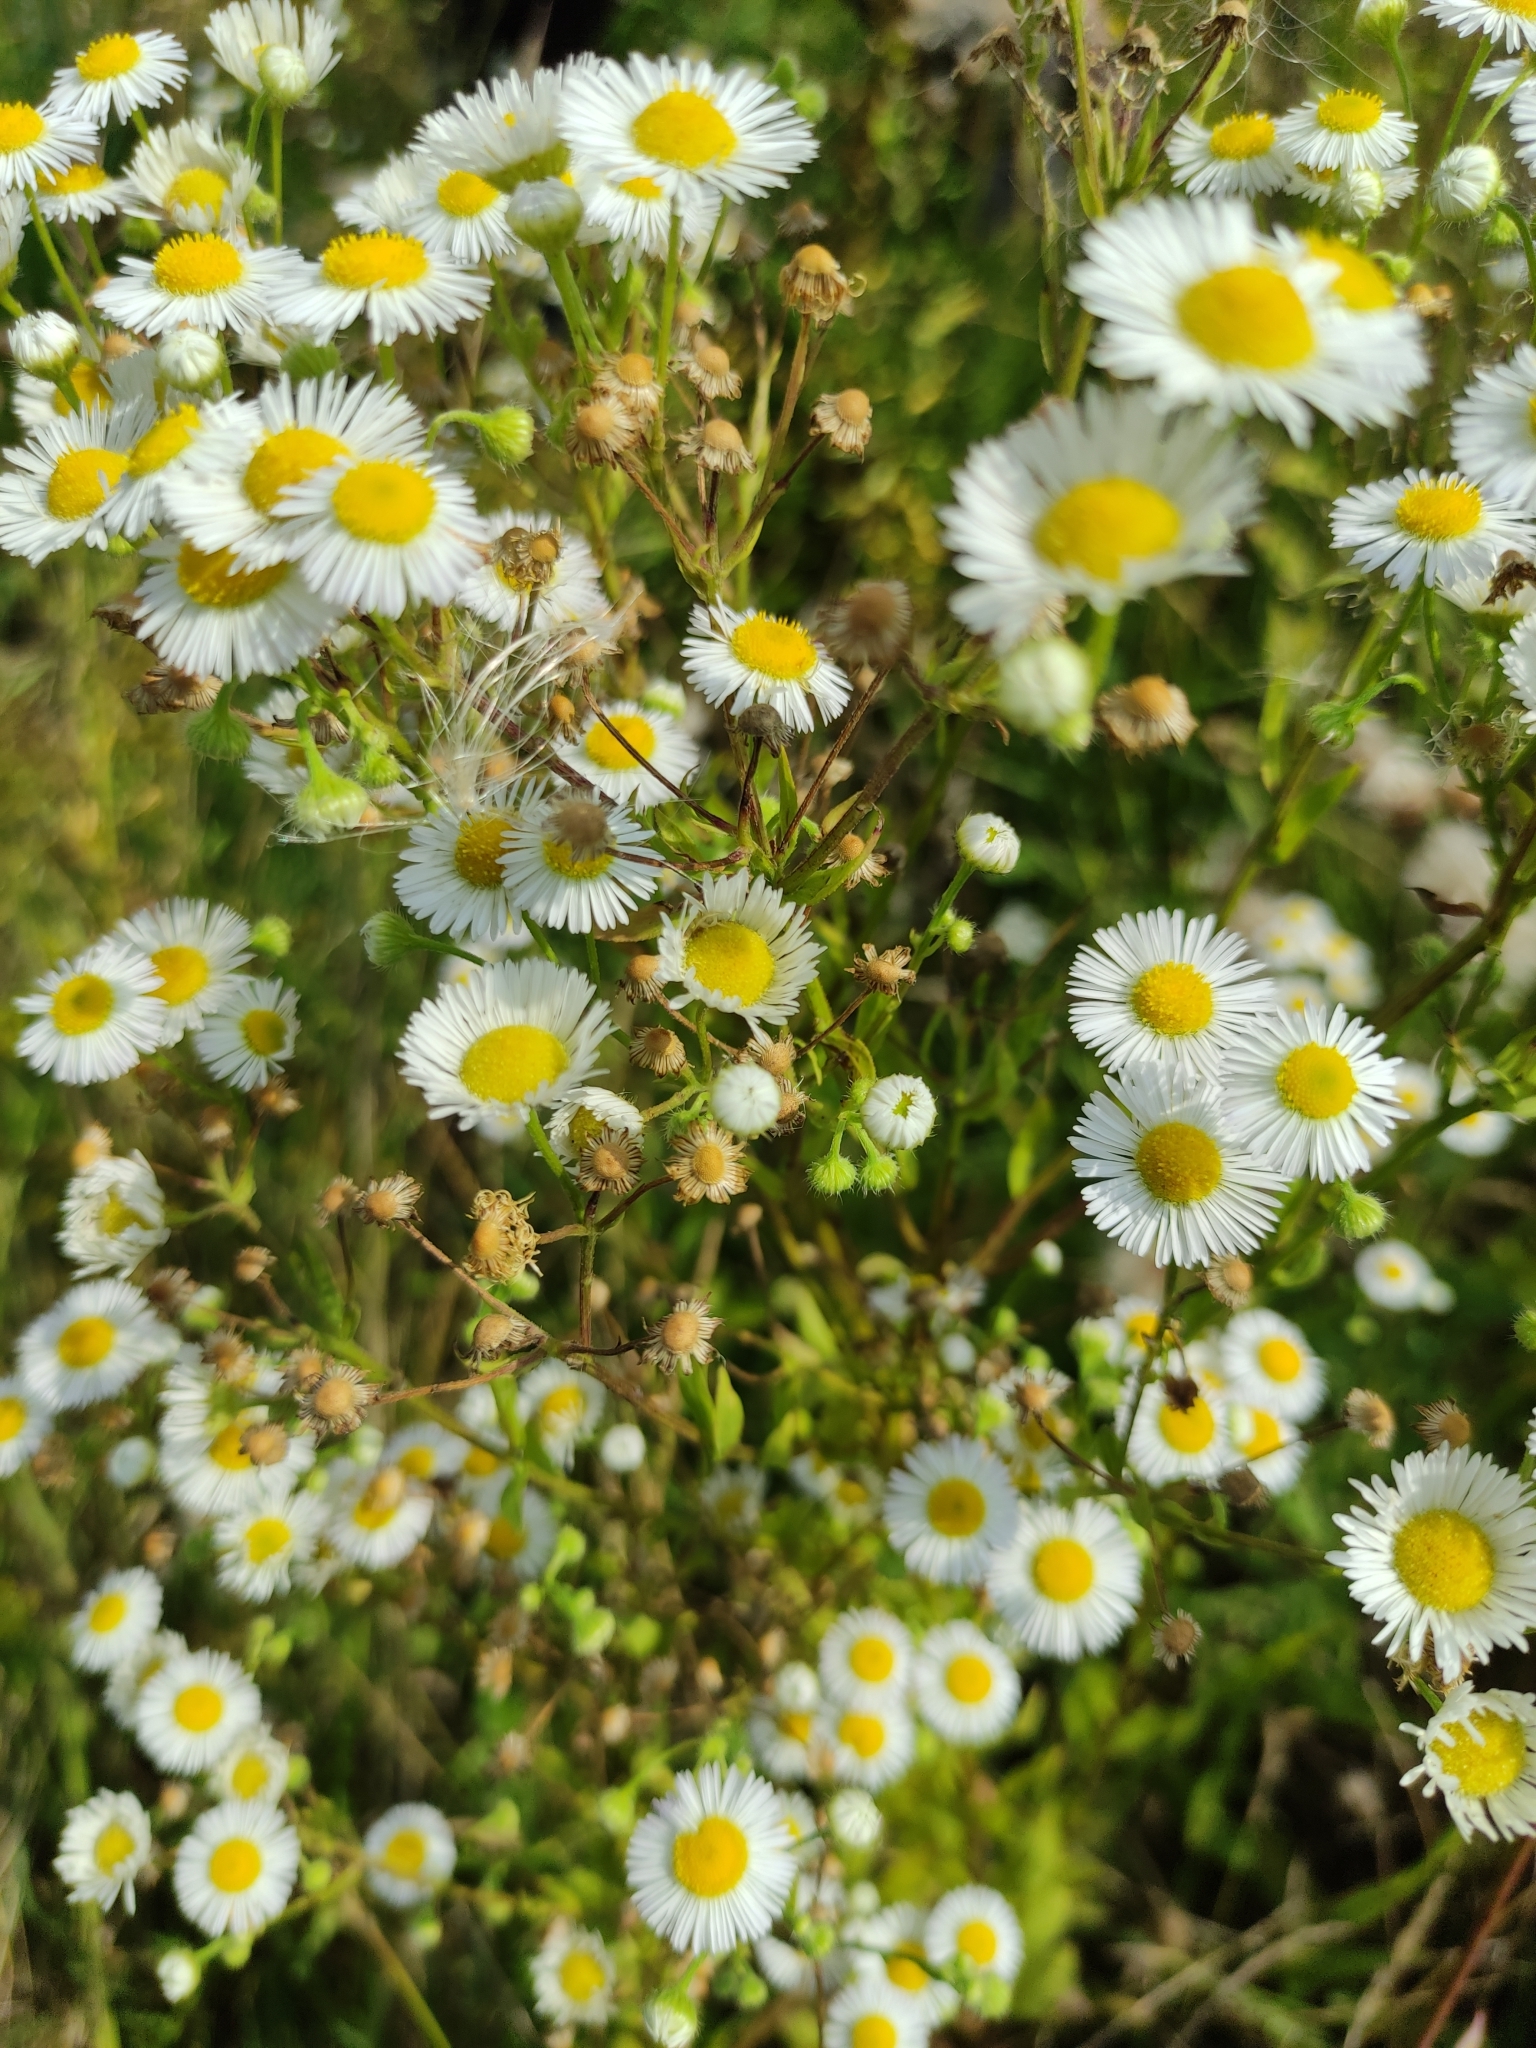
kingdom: Plantae
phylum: Tracheophyta
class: Magnoliopsida
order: Asterales
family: Asteraceae
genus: Erigeron
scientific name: Erigeron annuus
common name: Tall fleabane
